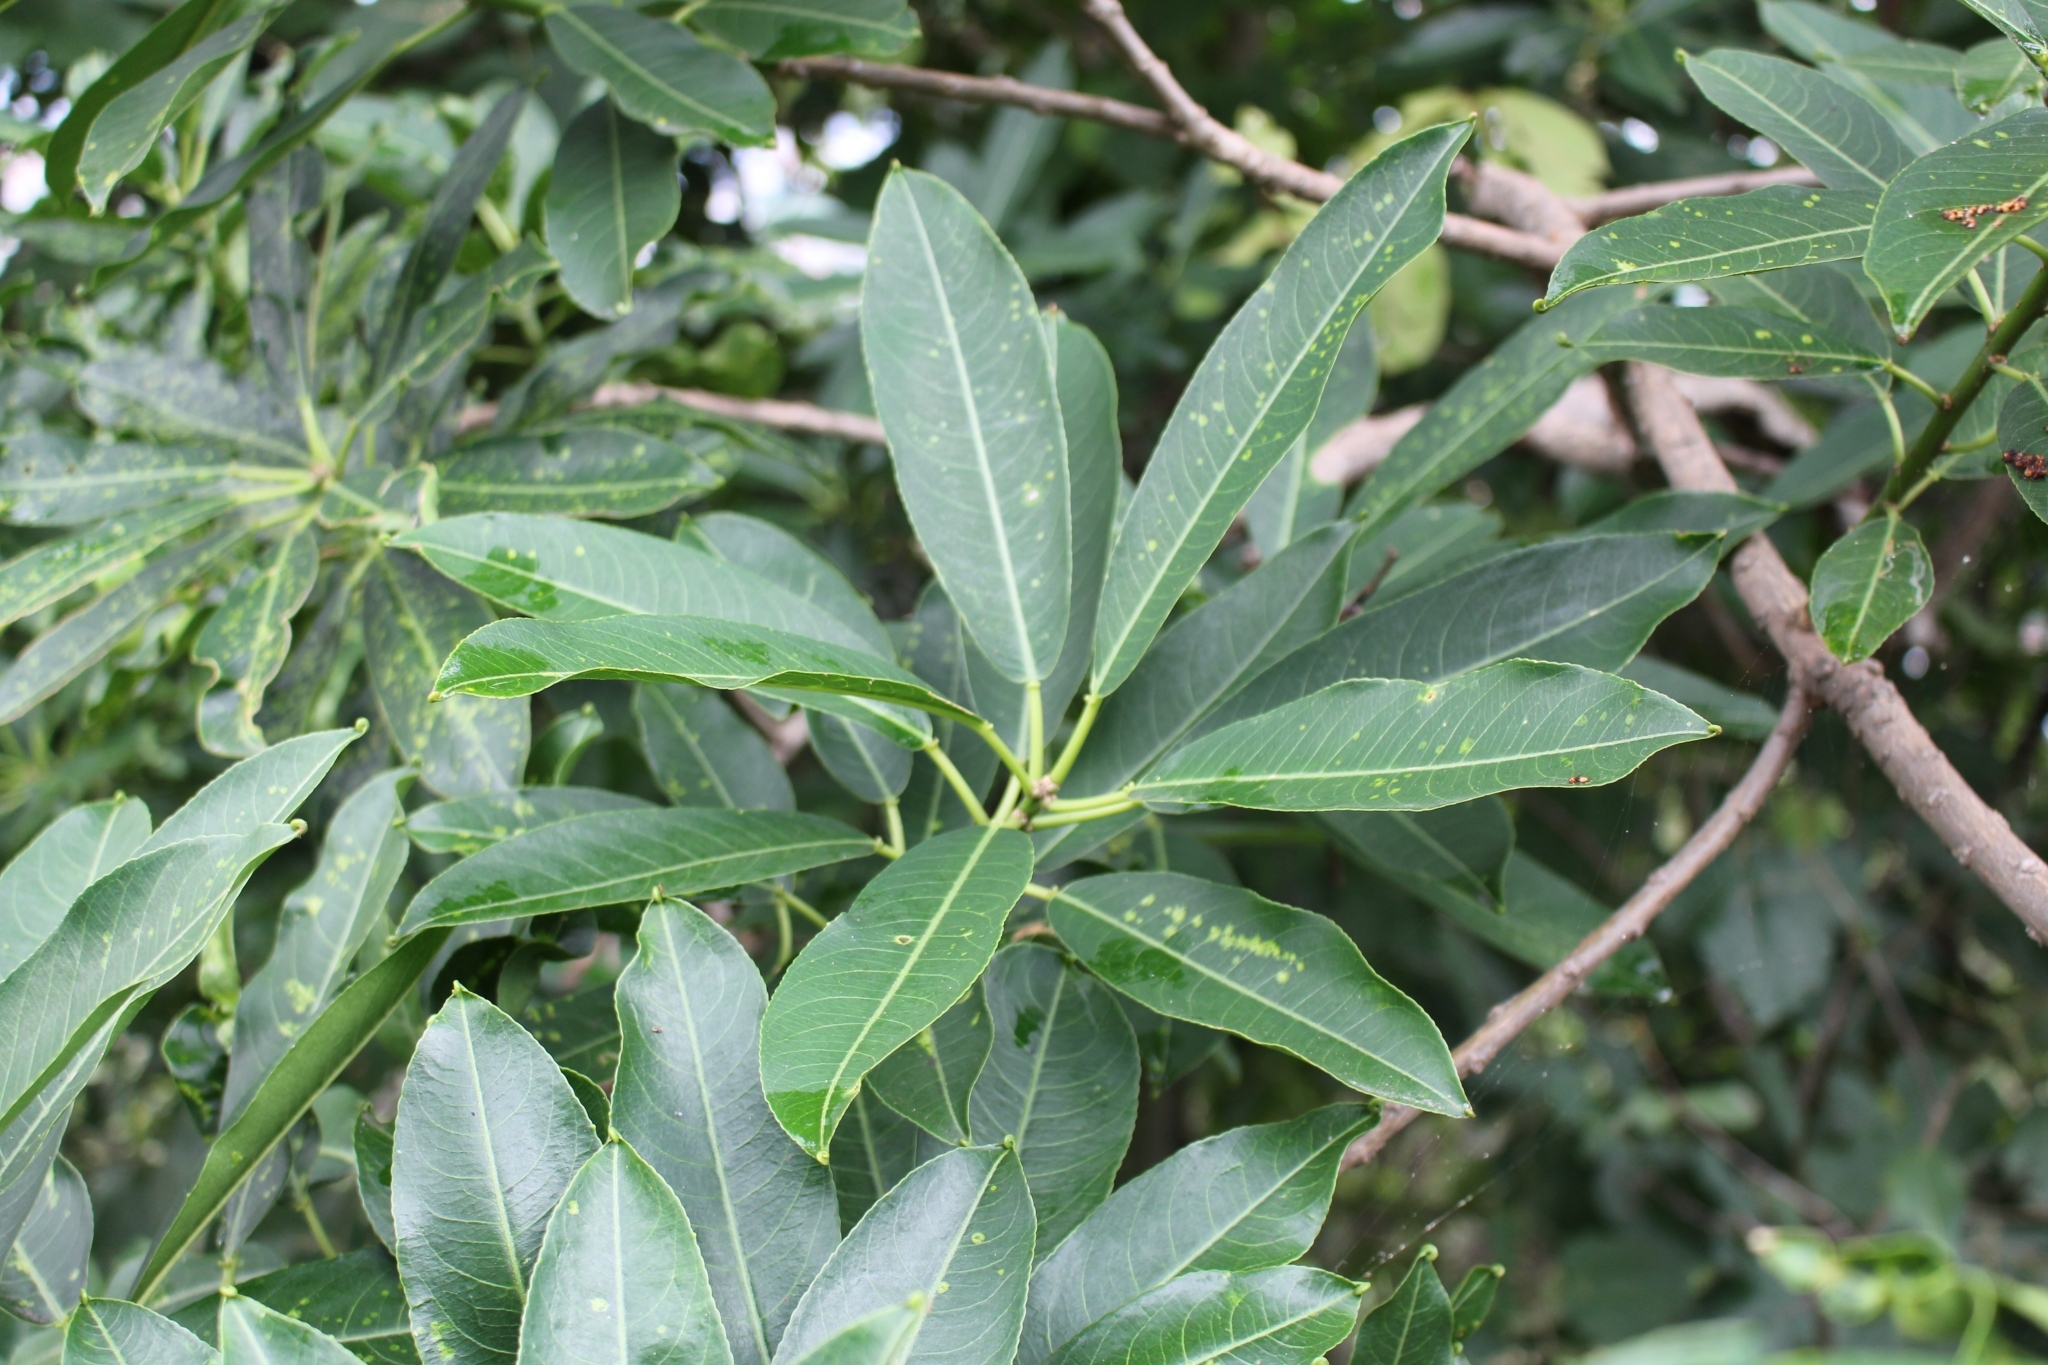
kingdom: Plantae
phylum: Tracheophyta
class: Magnoliopsida
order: Malpighiales
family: Euphorbiaceae
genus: Sapium
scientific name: Sapium macrocarpum
